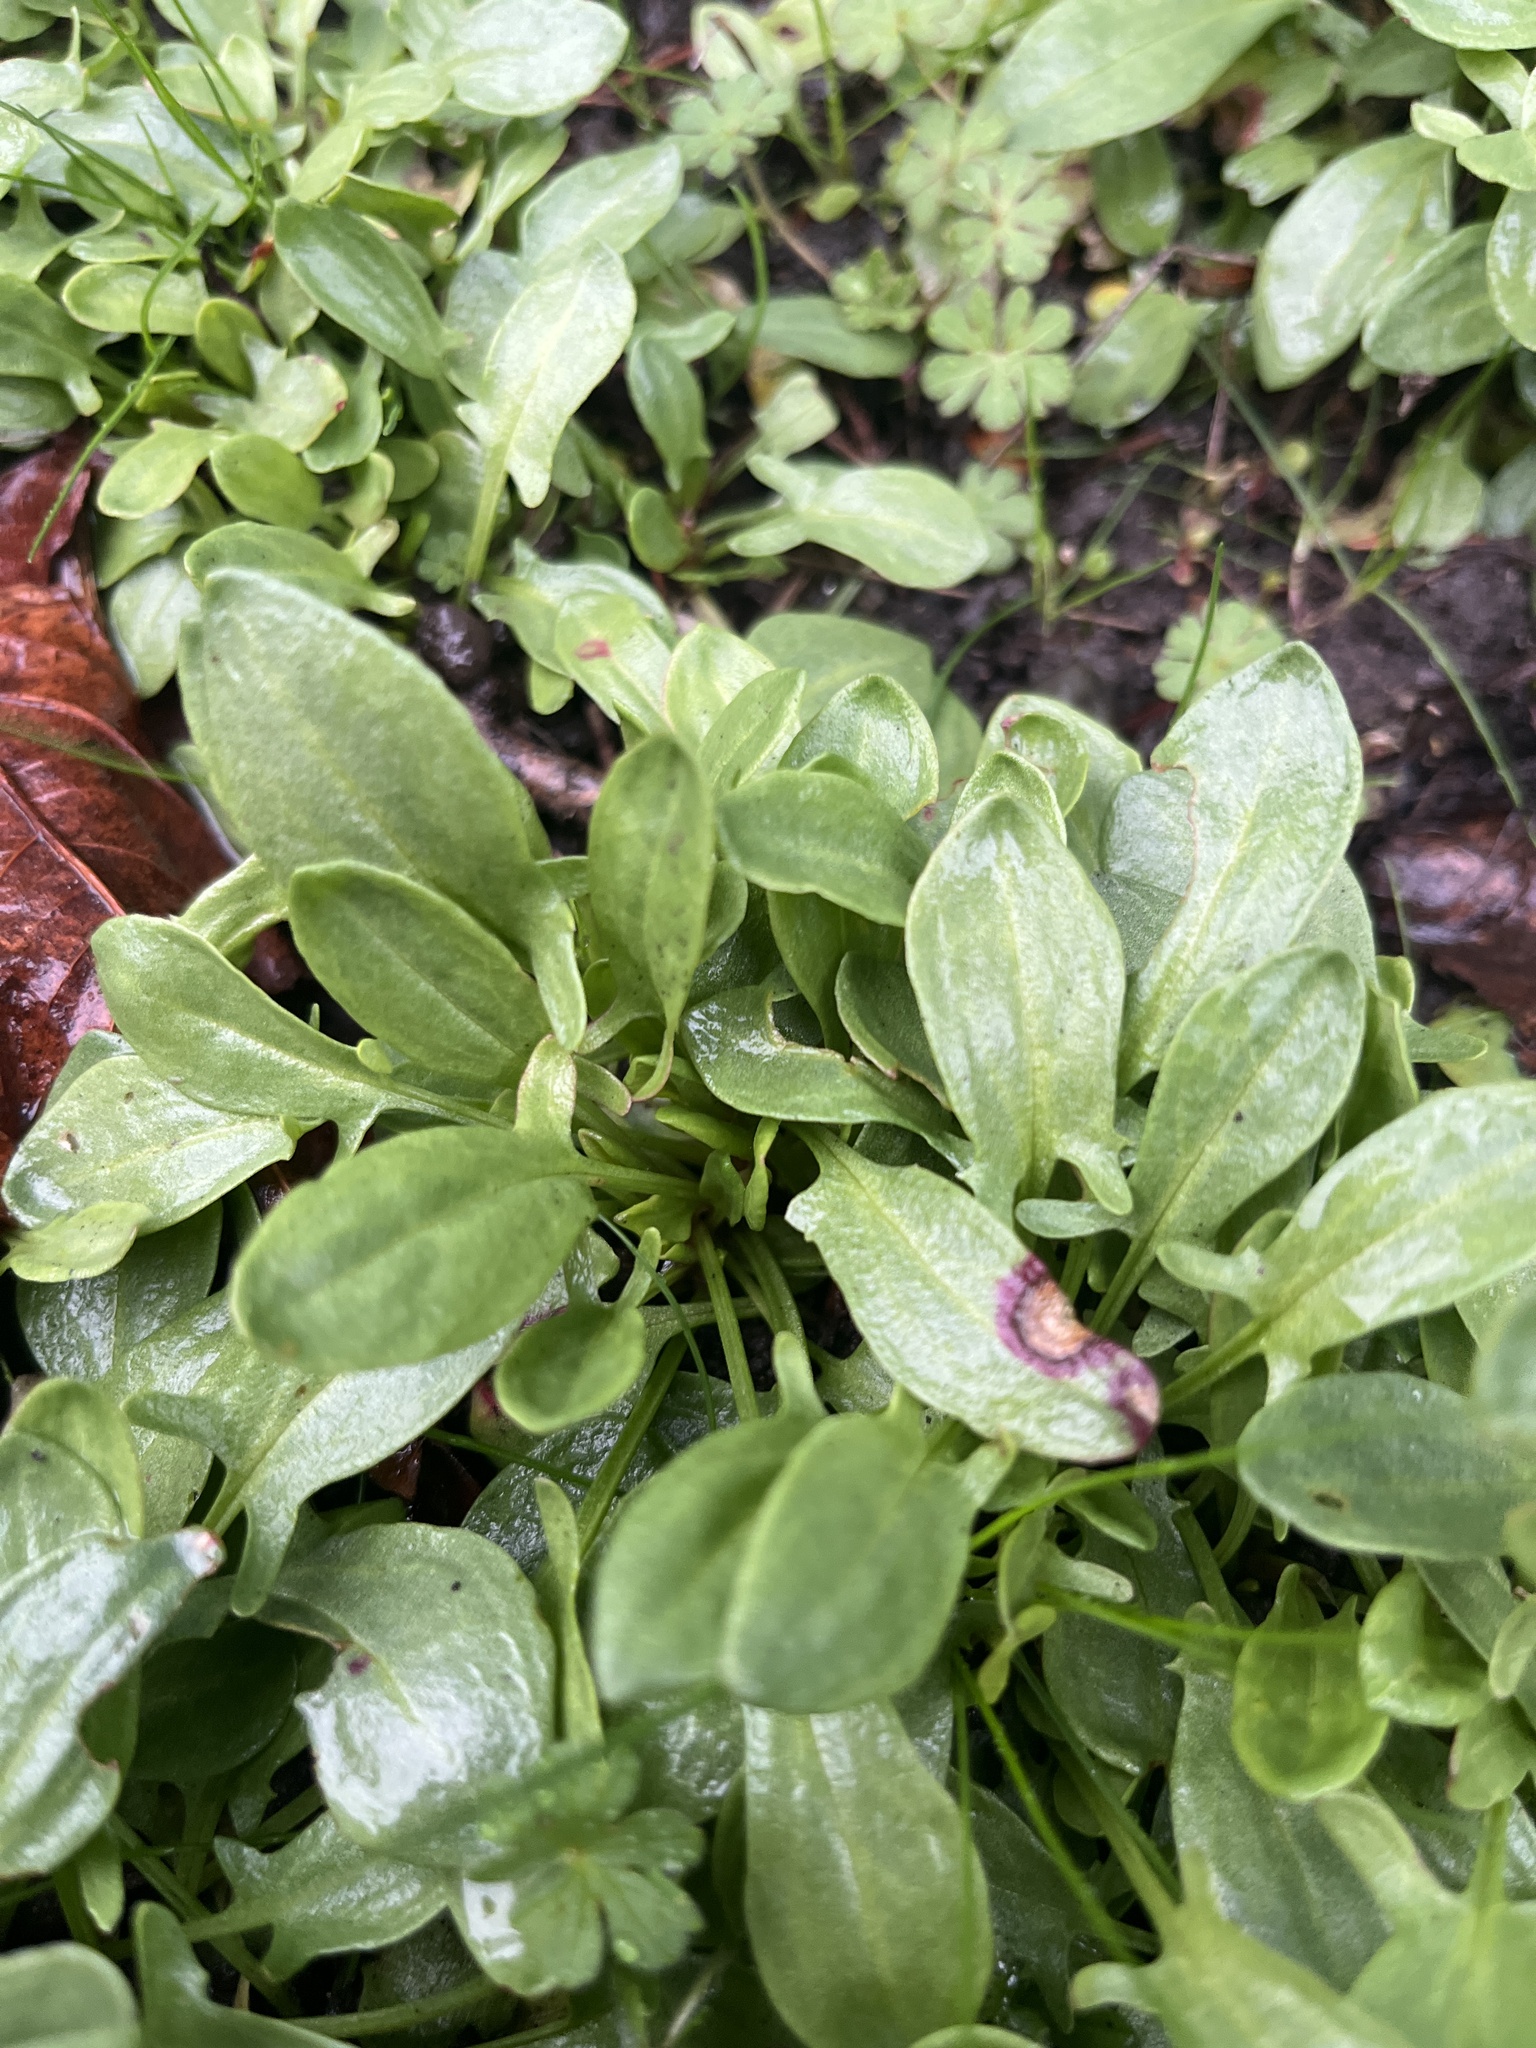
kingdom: Plantae
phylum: Tracheophyta
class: Magnoliopsida
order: Caryophyllales
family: Polygonaceae
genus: Rumex
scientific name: Rumex acetosella
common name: Common sheep sorrel
